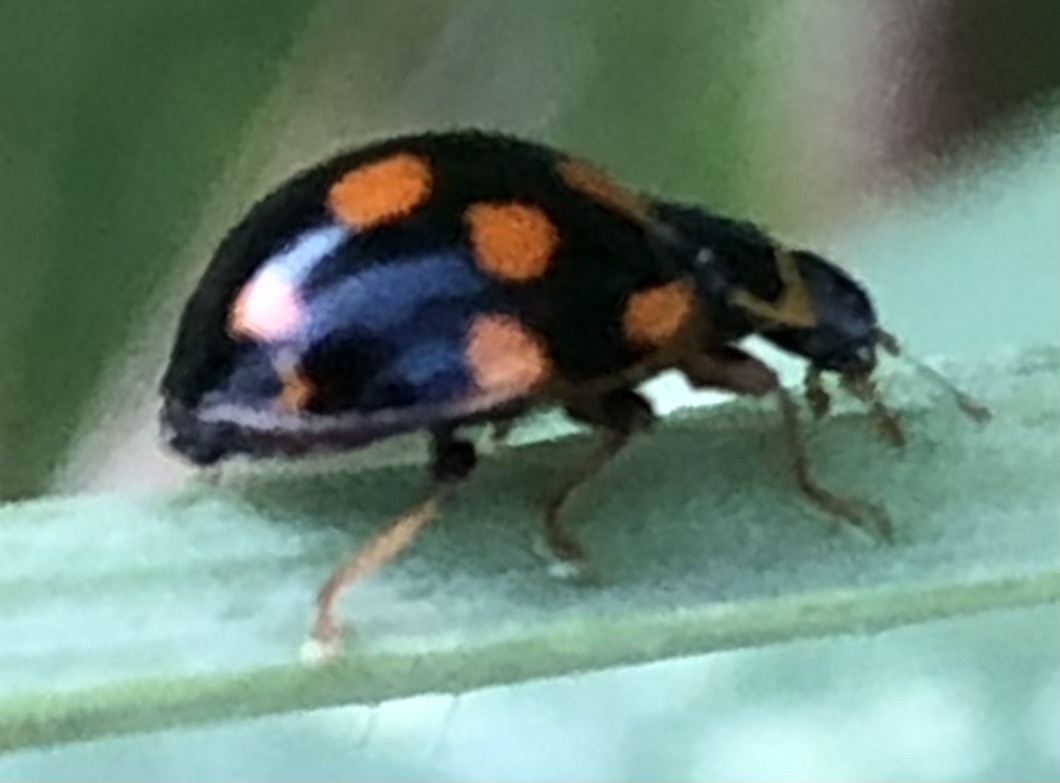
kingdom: Animalia
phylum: Arthropoda
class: Insecta
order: Coleoptera
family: Coccinellidae
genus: Propylaea
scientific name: Propylaea quatuordecimpunctata
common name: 14-spotted ladybird beetle
